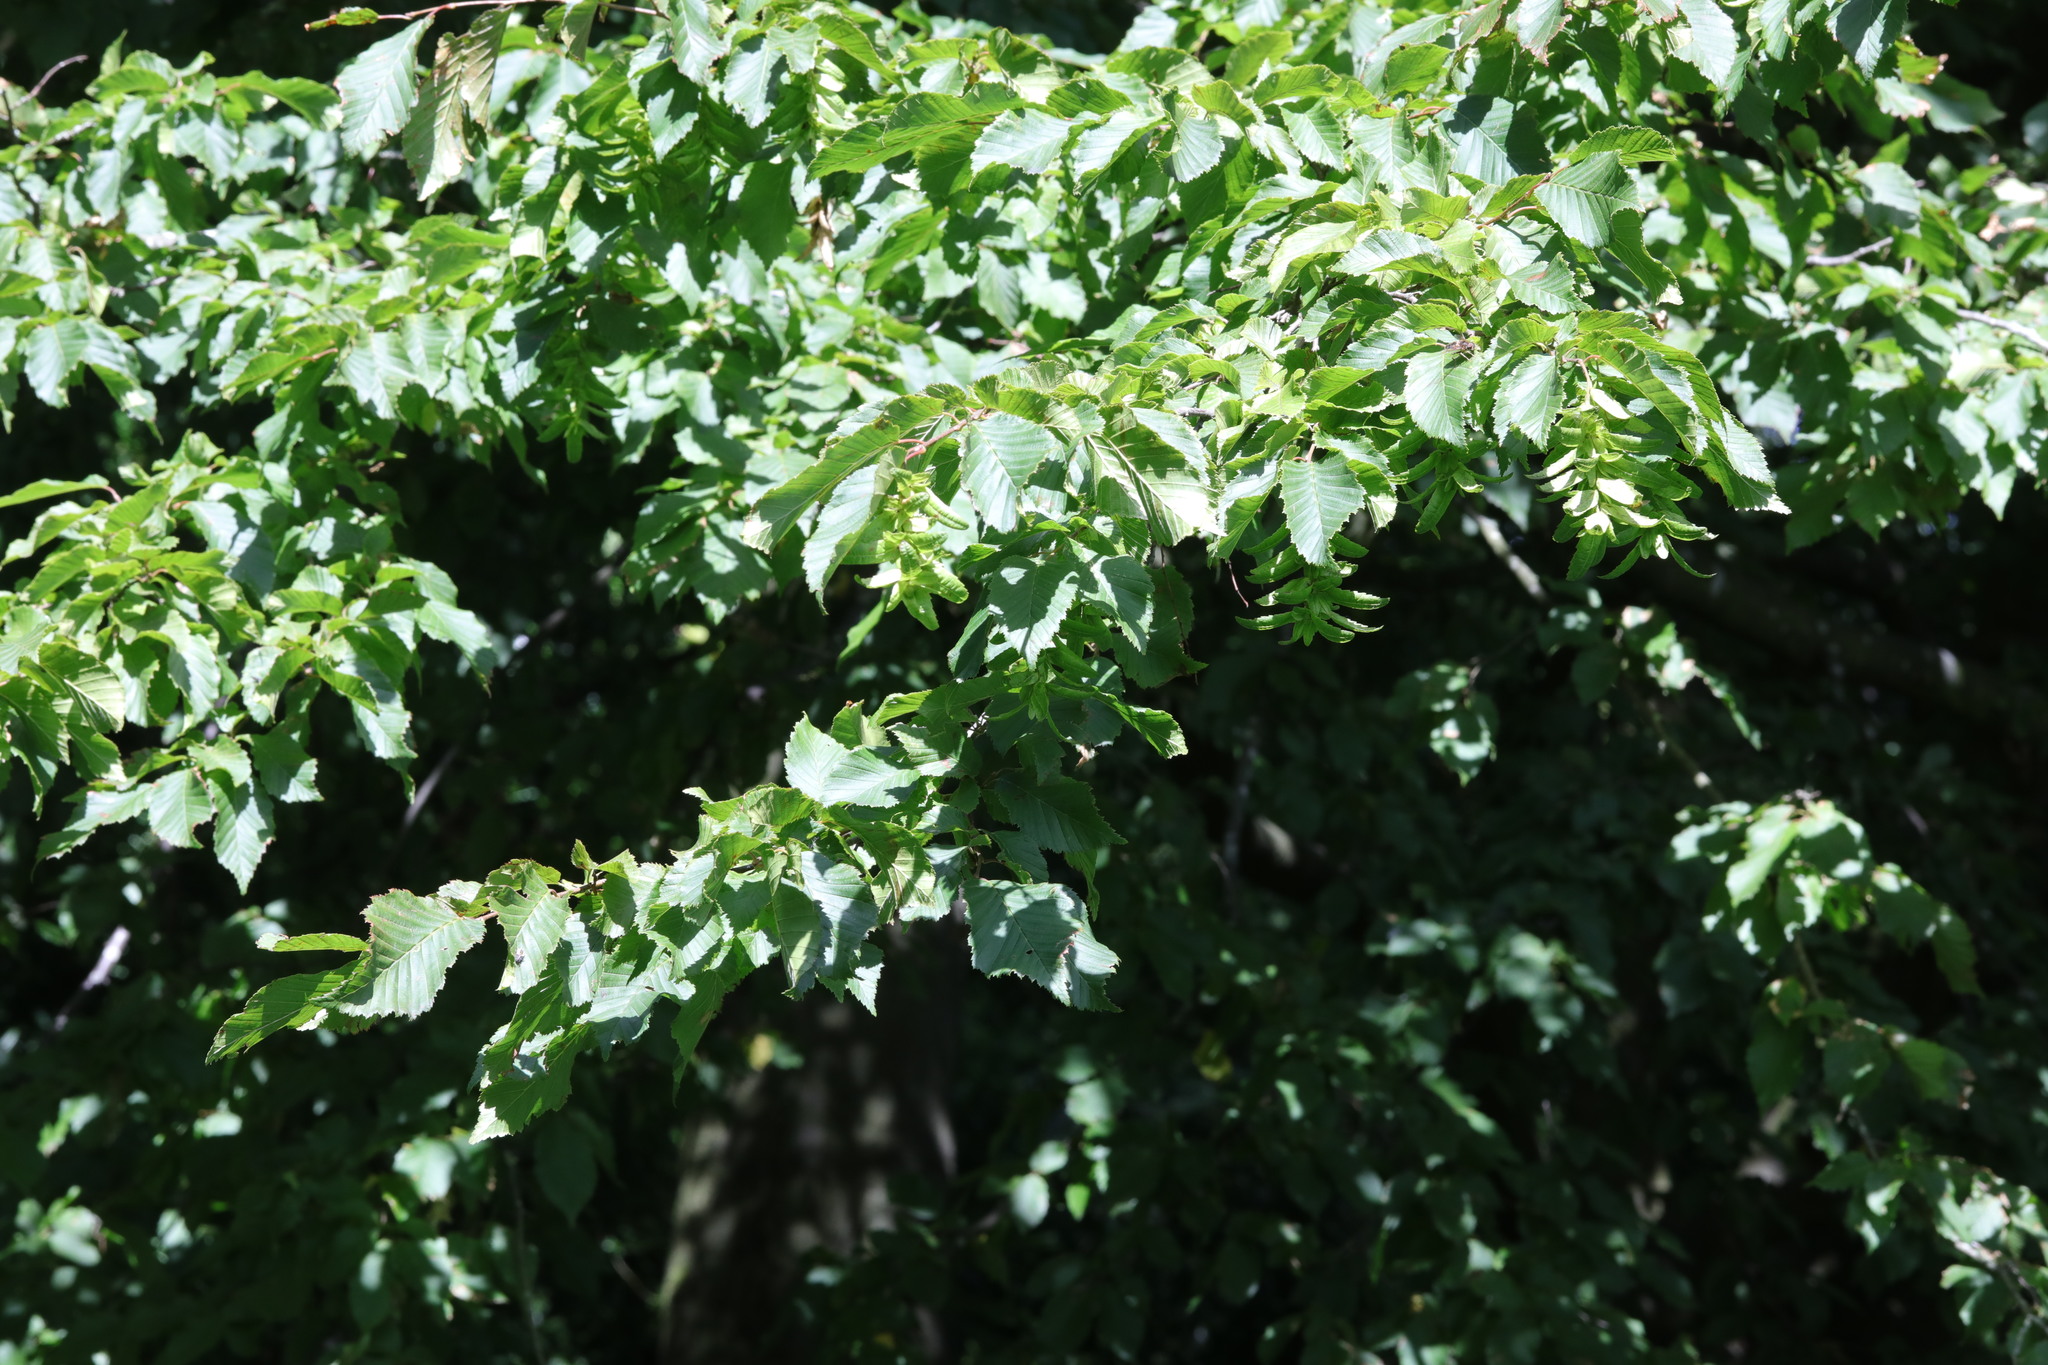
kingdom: Plantae
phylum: Tracheophyta
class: Magnoliopsida
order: Fagales
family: Betulaceae
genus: Carpinus
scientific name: Carpinus betulus
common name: Hornbeam
